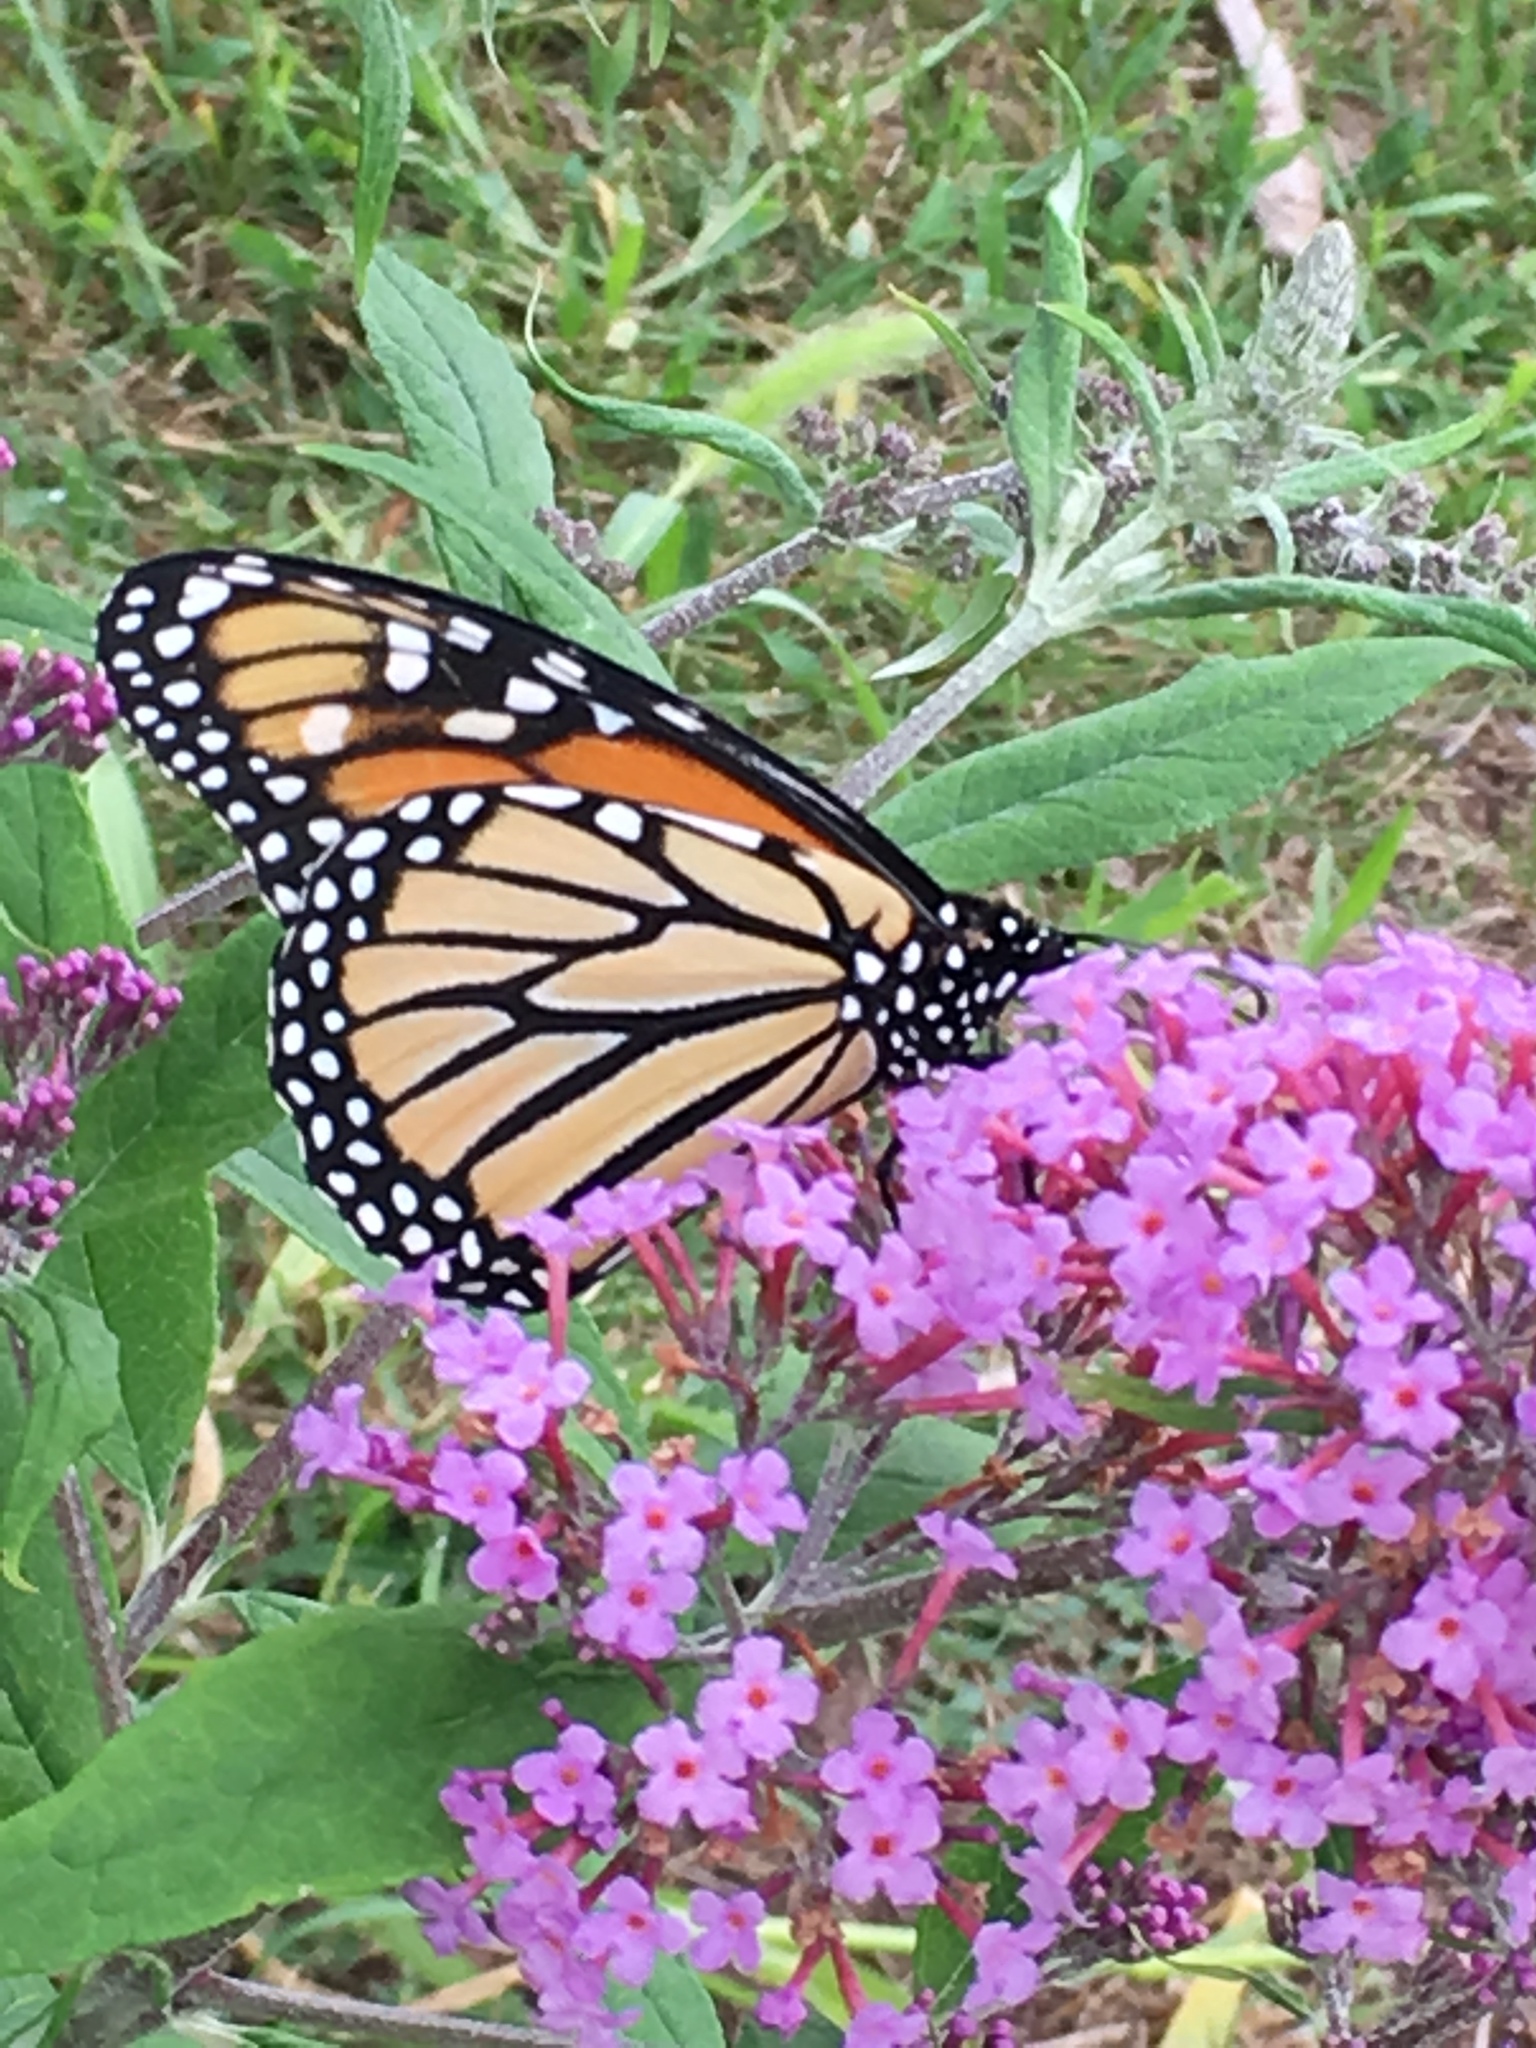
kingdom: Animalia
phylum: Arthropoda
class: Insecta
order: Lepidoptera
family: Nymphalidae
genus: Danaus
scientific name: Danaus plexippus
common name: Monarch
